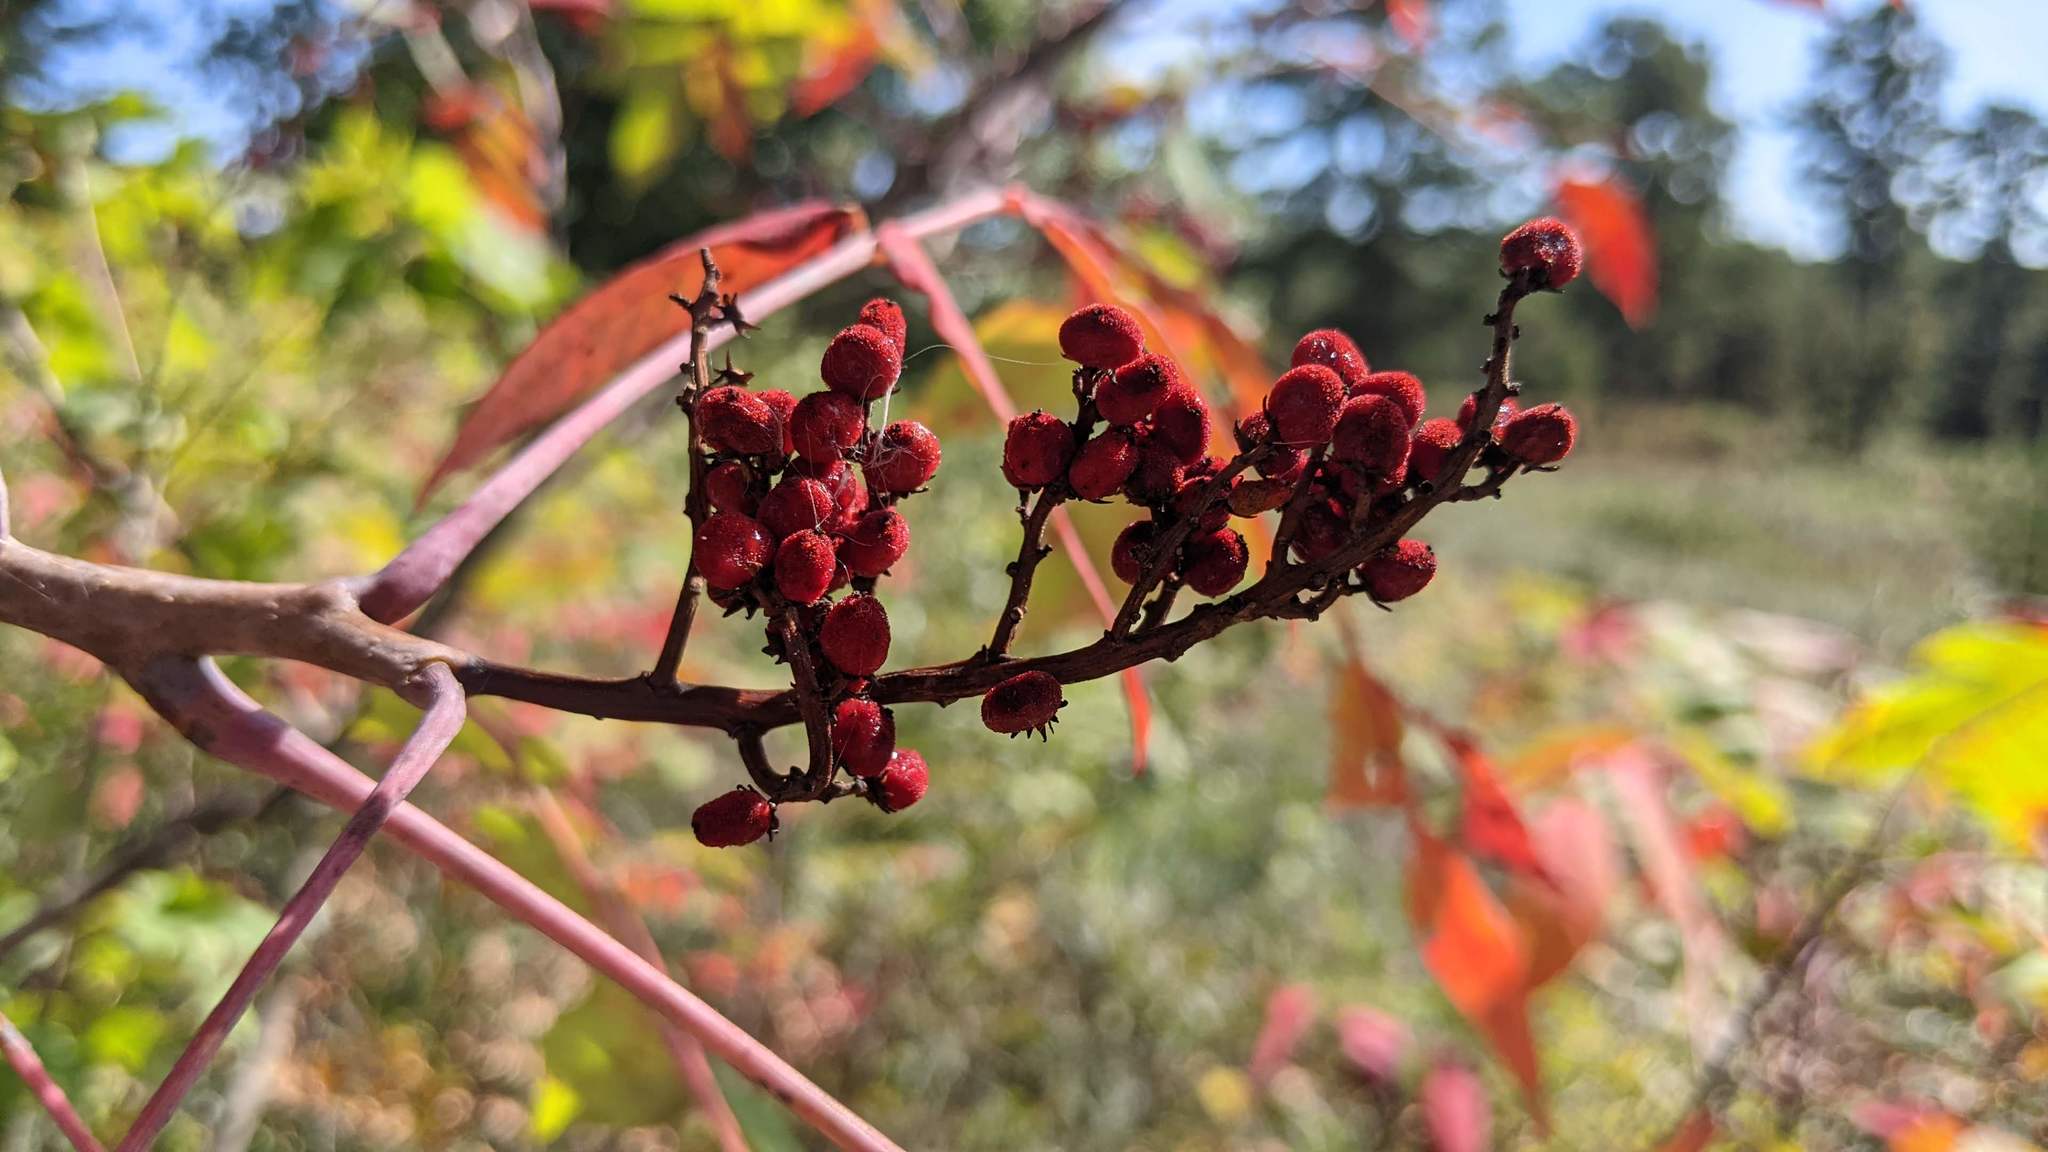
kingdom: Plantae
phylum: Tracheophyta
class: Magnoliopsida
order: Sapindales
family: Anacardiaceae
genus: Rhus
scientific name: Rhus glabra
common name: Scarlet sumac
